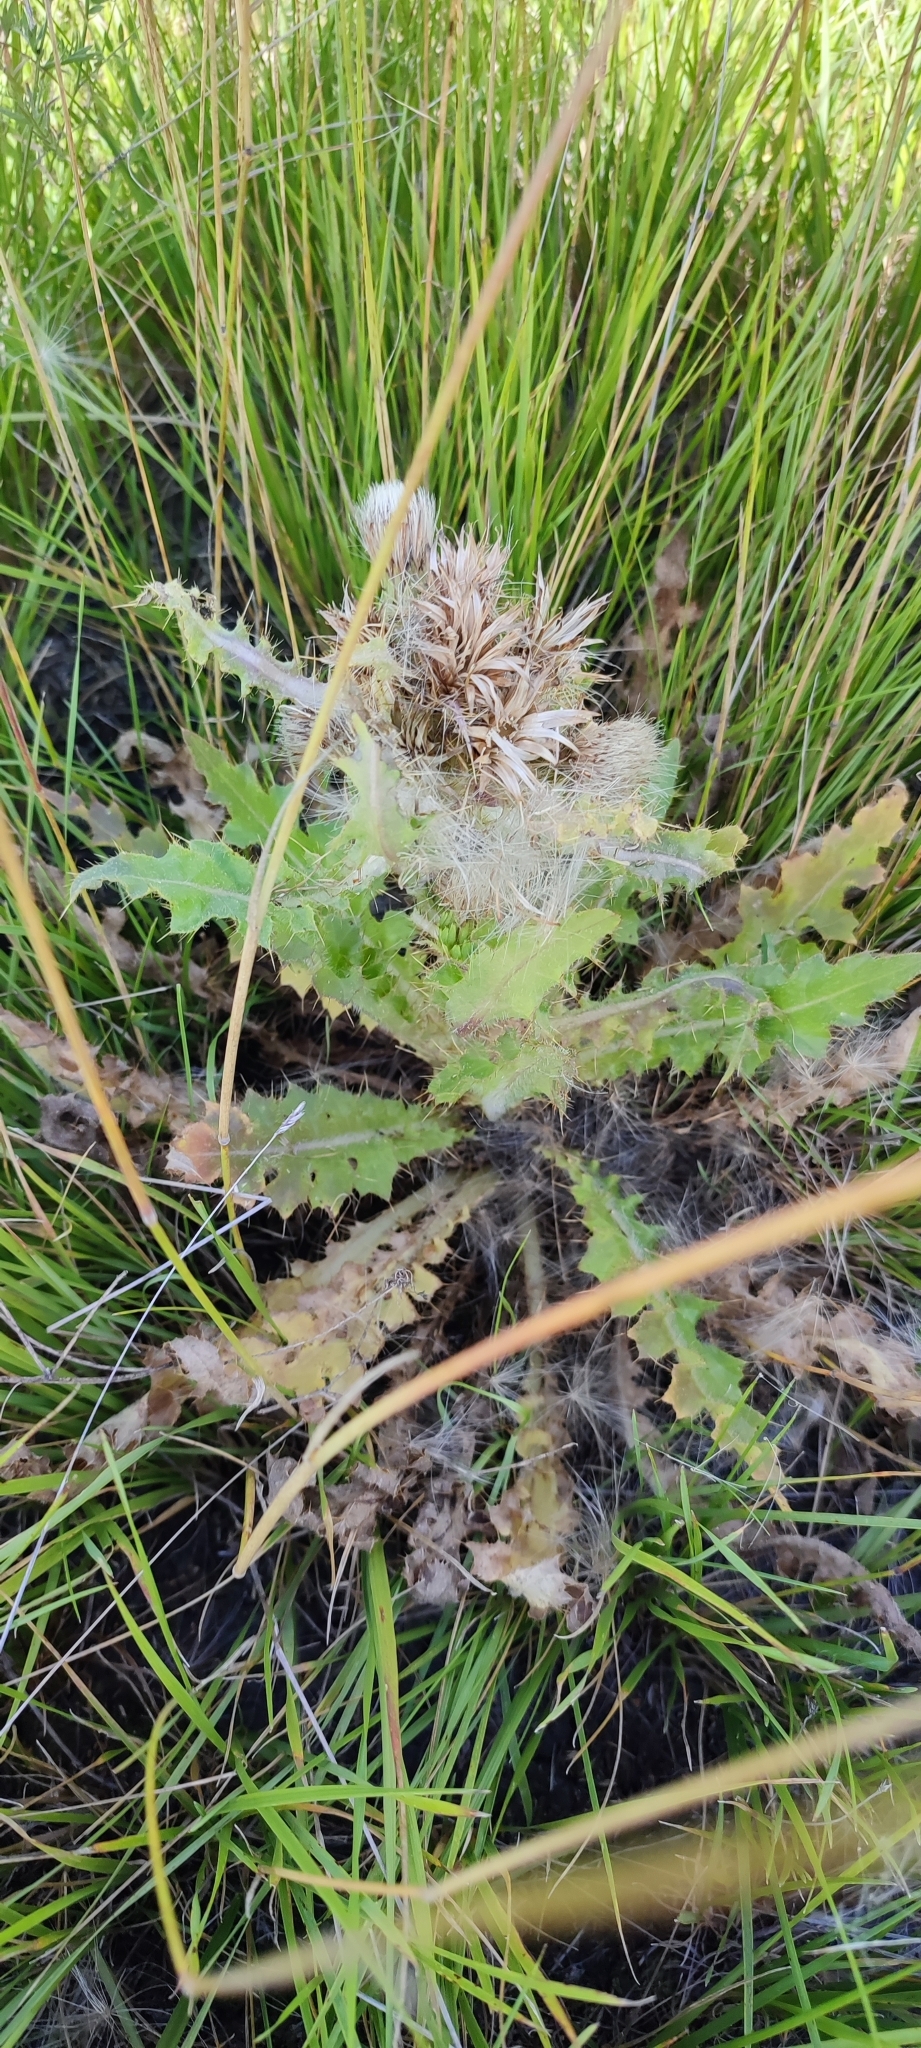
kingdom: Plantae
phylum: Tracheophyta
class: Magnoliopsida
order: Asterales
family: Asteraceae
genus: Cirsium
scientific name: Cirsium esculentum
